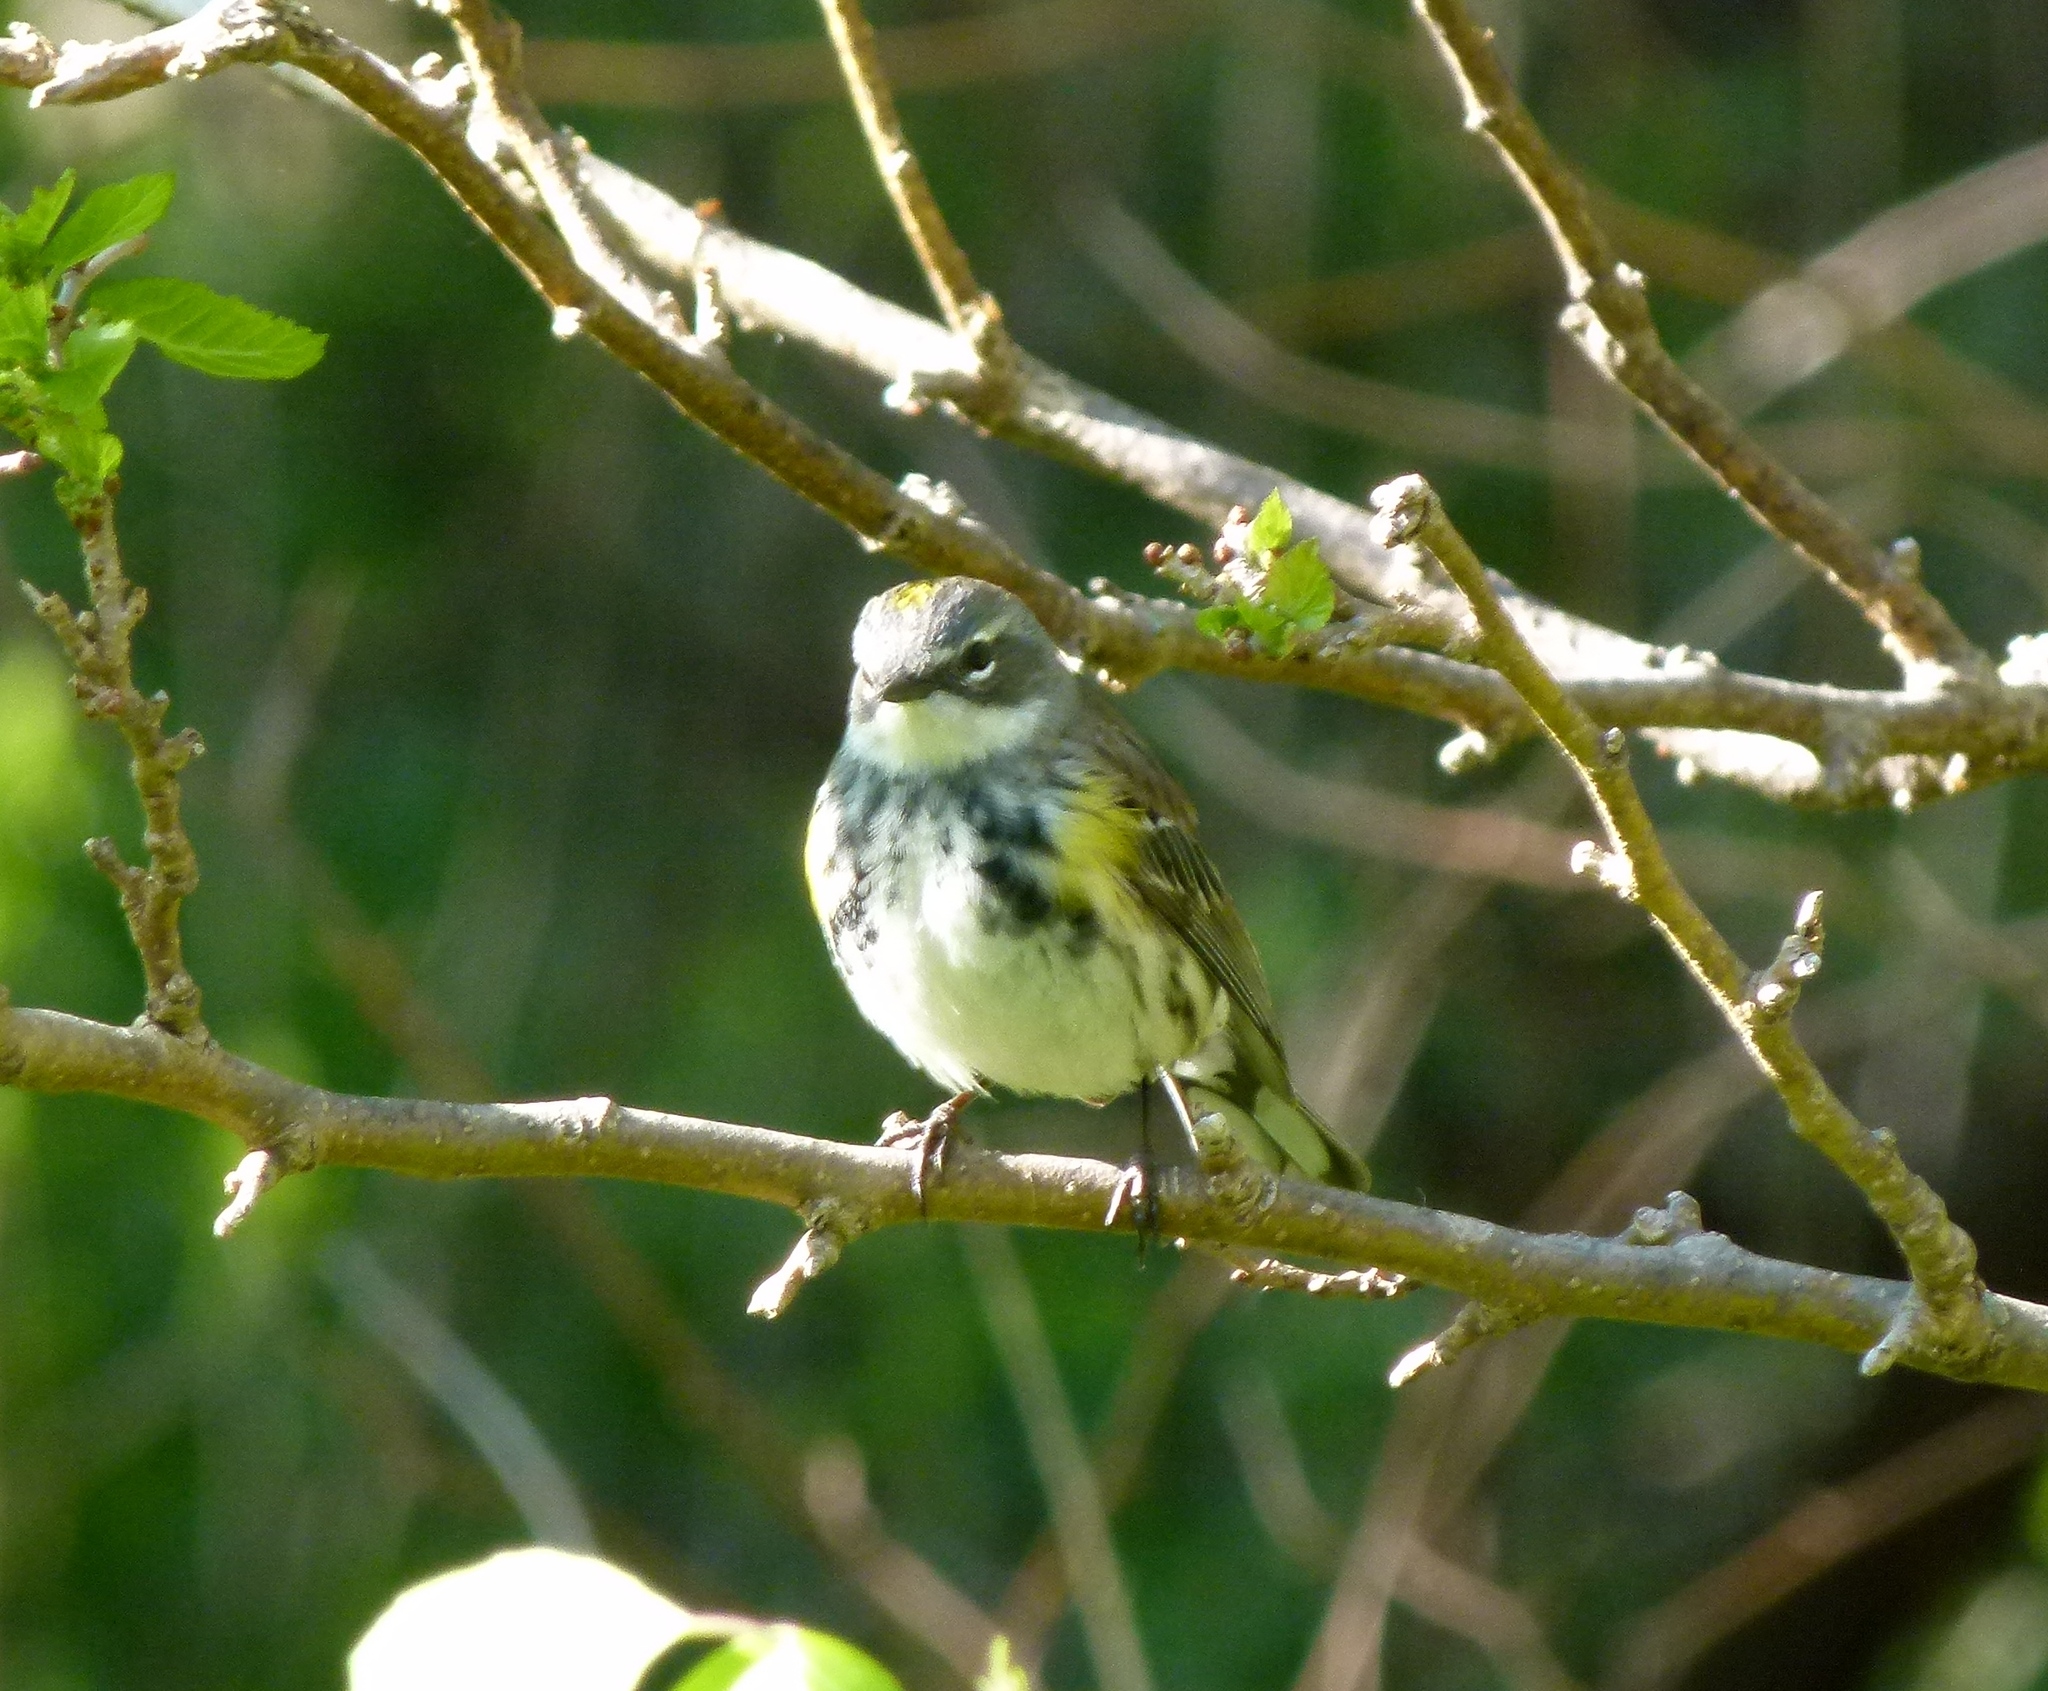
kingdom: Animalia
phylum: Chordata
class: Aves
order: Passeriformes
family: Parulidae
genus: Setophaga
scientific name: Setophaga coronata
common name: Myrtle warbler
